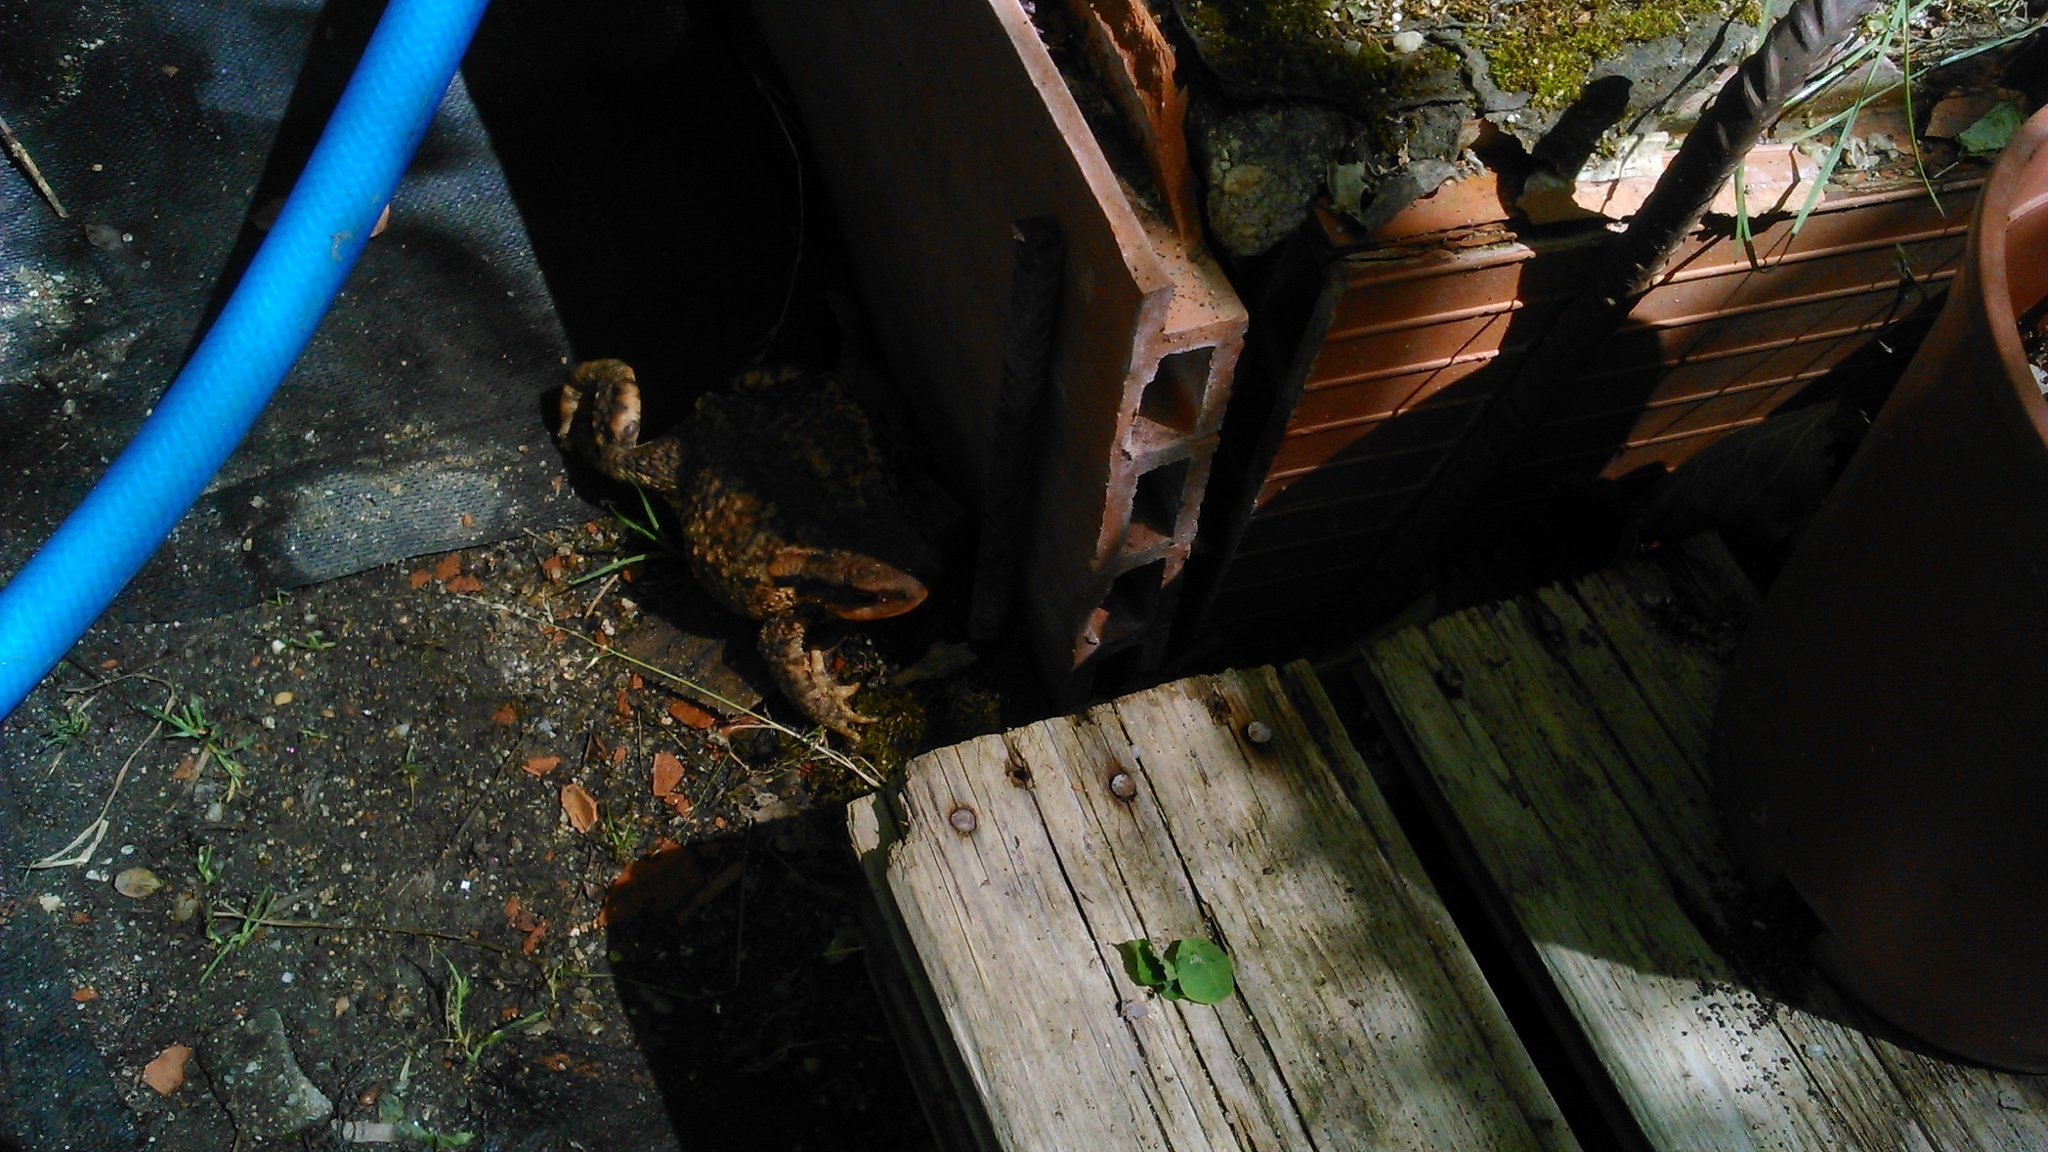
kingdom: Animalia
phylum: Chordata
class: Amphibia
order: Anura
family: Bufonidae
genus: Bufo
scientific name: Bufo spinosus
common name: Western common toad
